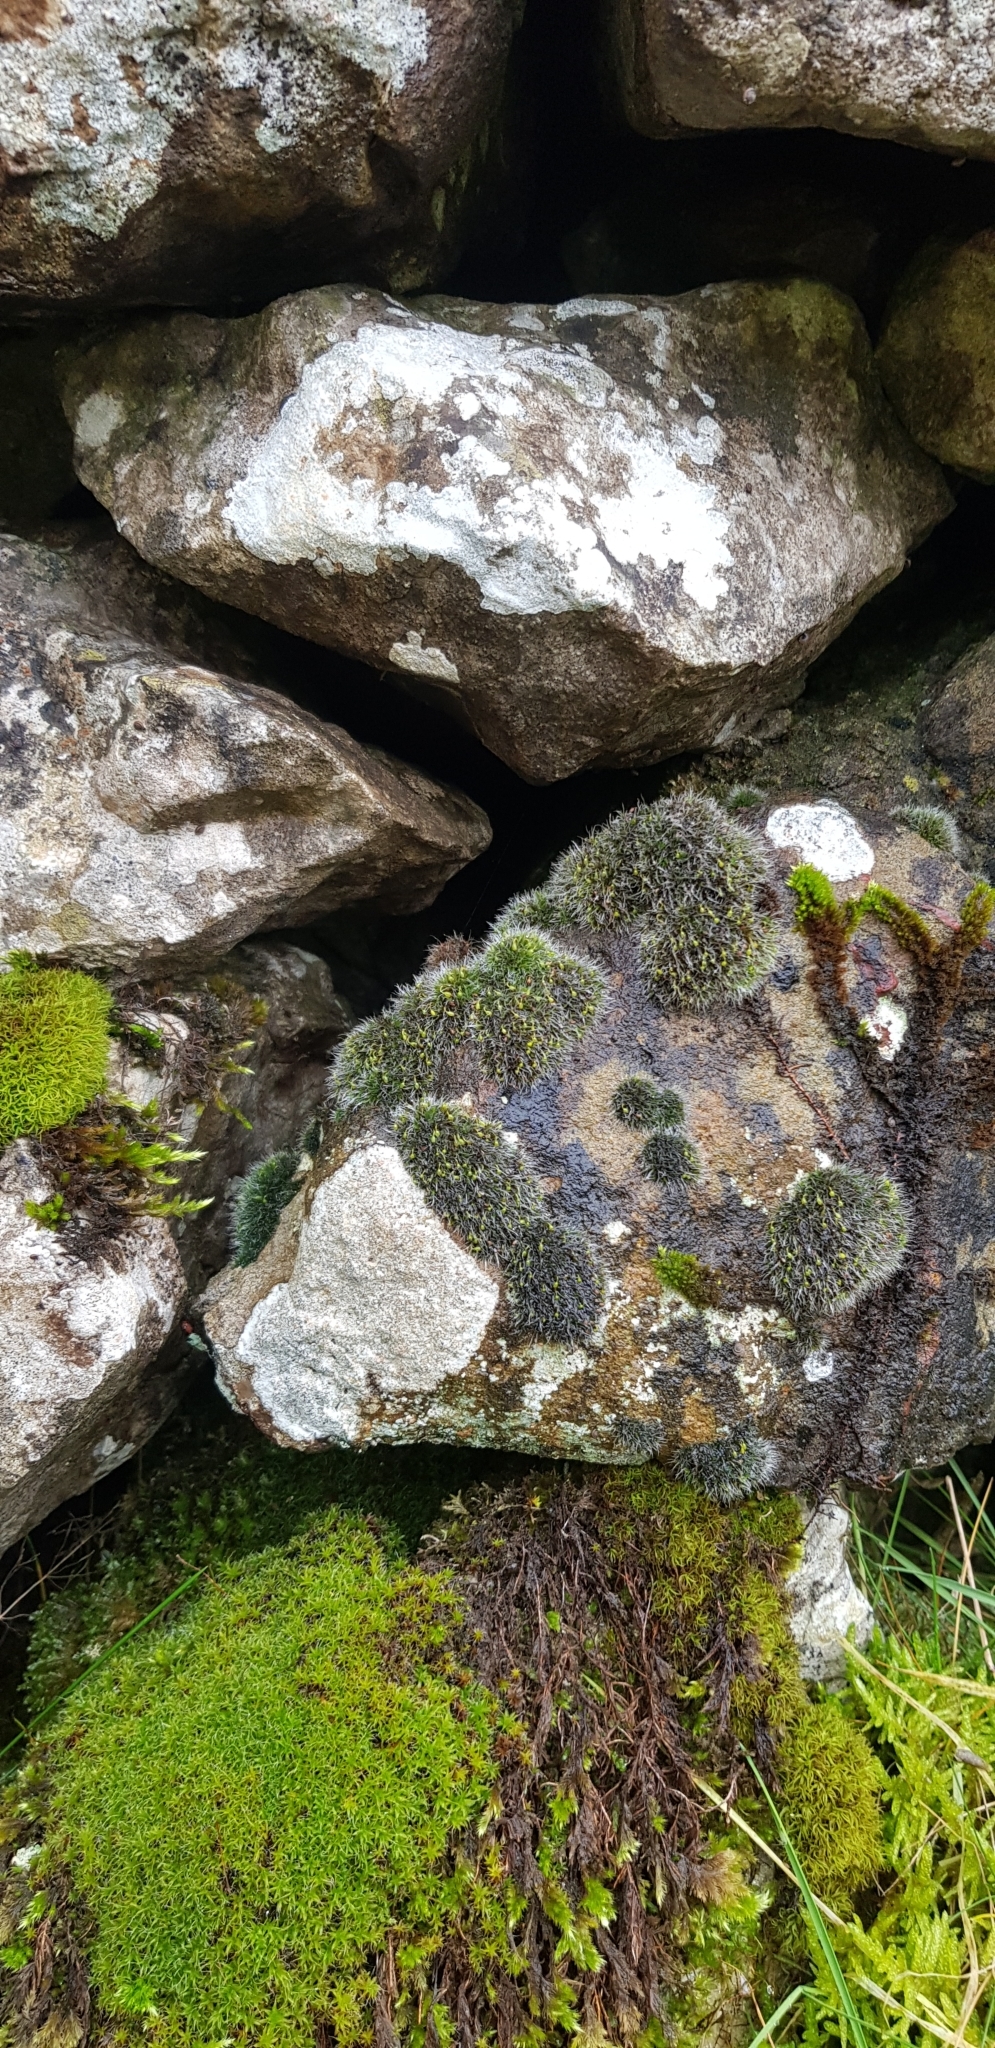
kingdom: Plantae
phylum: Bryophyta
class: Bryopsida
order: Grimmiales
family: Grimmiaceae
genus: Grimmia
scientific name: Grimmia pulvinata
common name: Grey-cushioned grimmia
